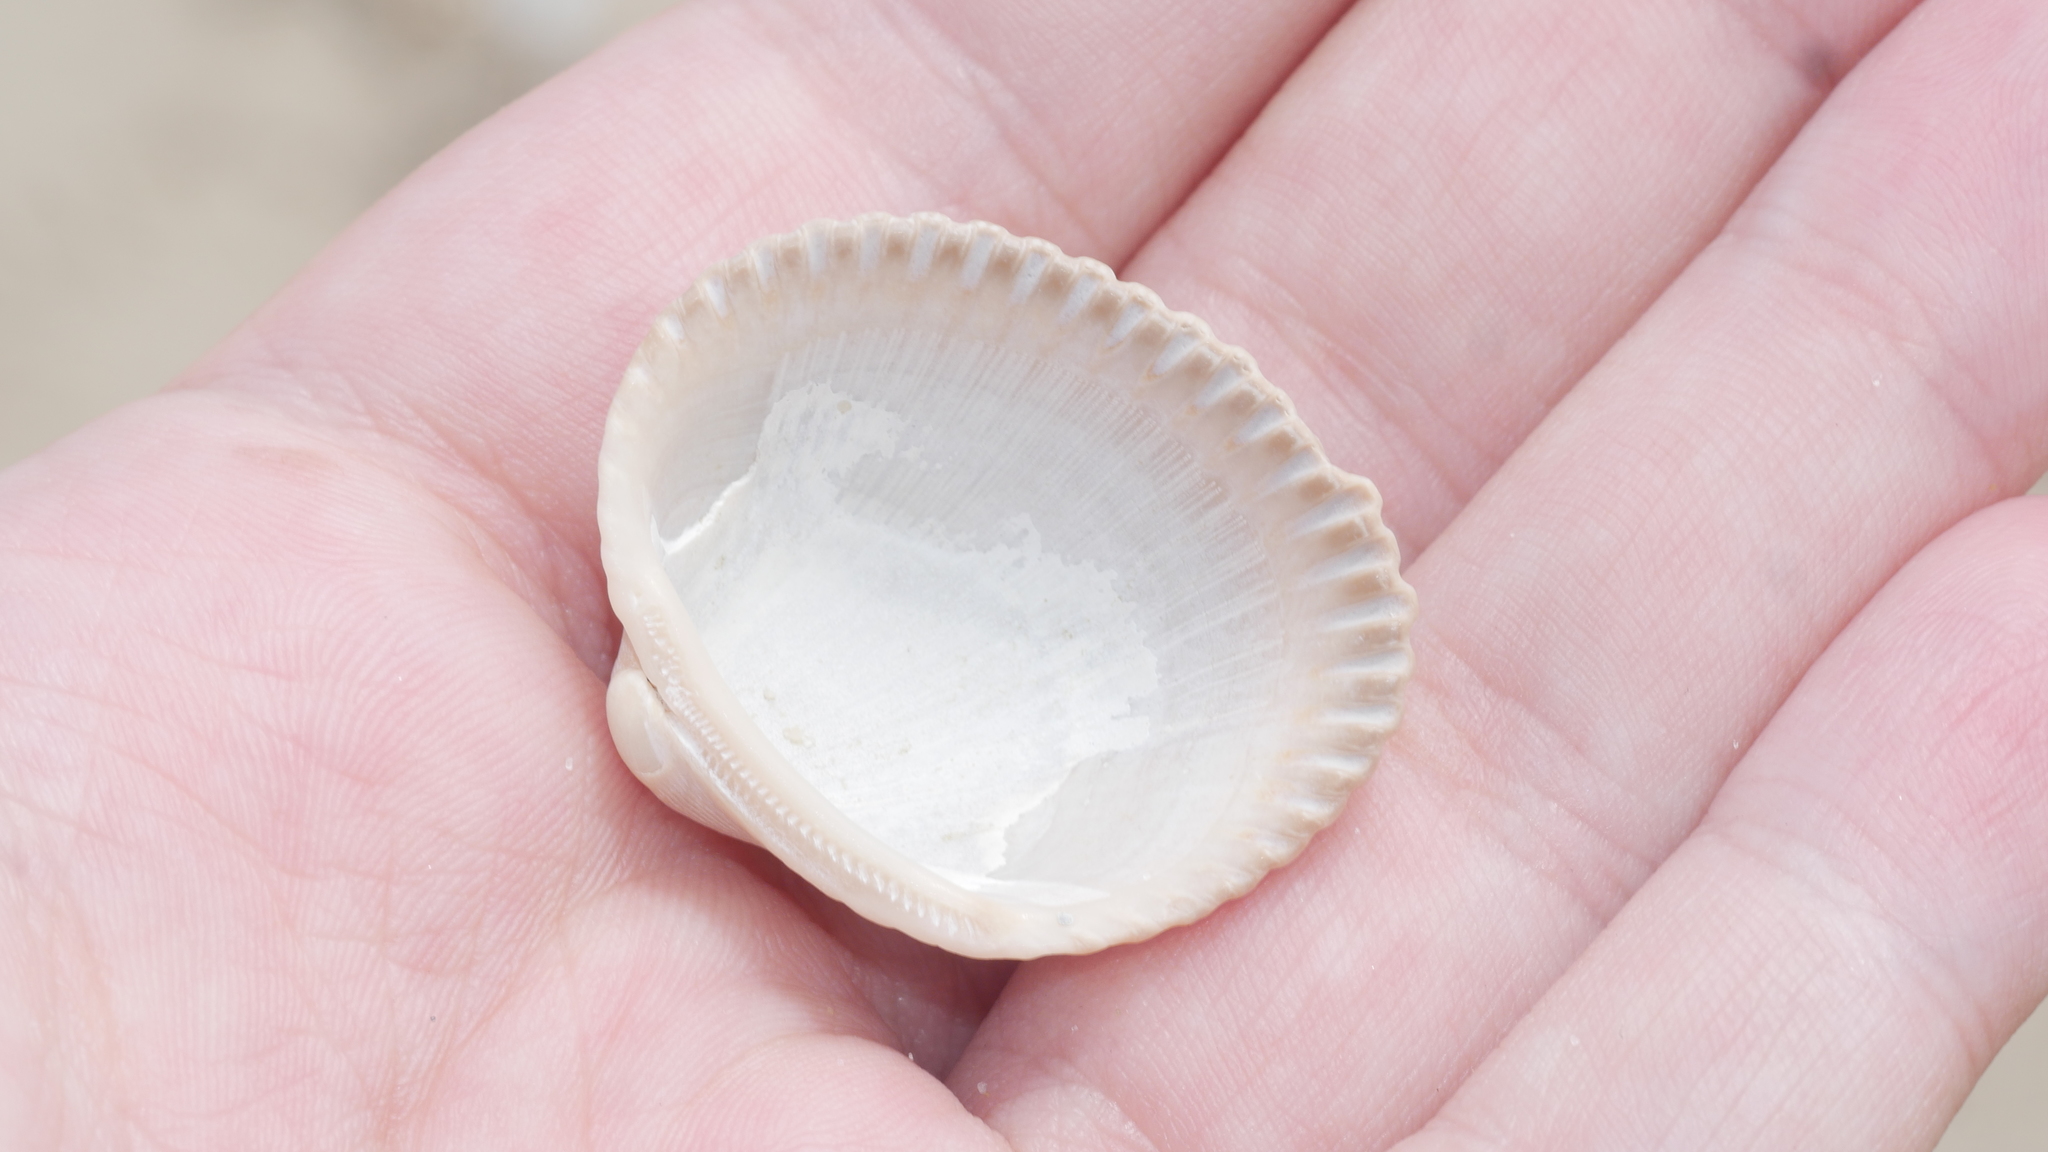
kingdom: Animalia
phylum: Mollusca
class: Bivalvia
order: Arcida
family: Arcidae
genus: Lunarca
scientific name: Lunarca ovalis
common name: Blood ark
